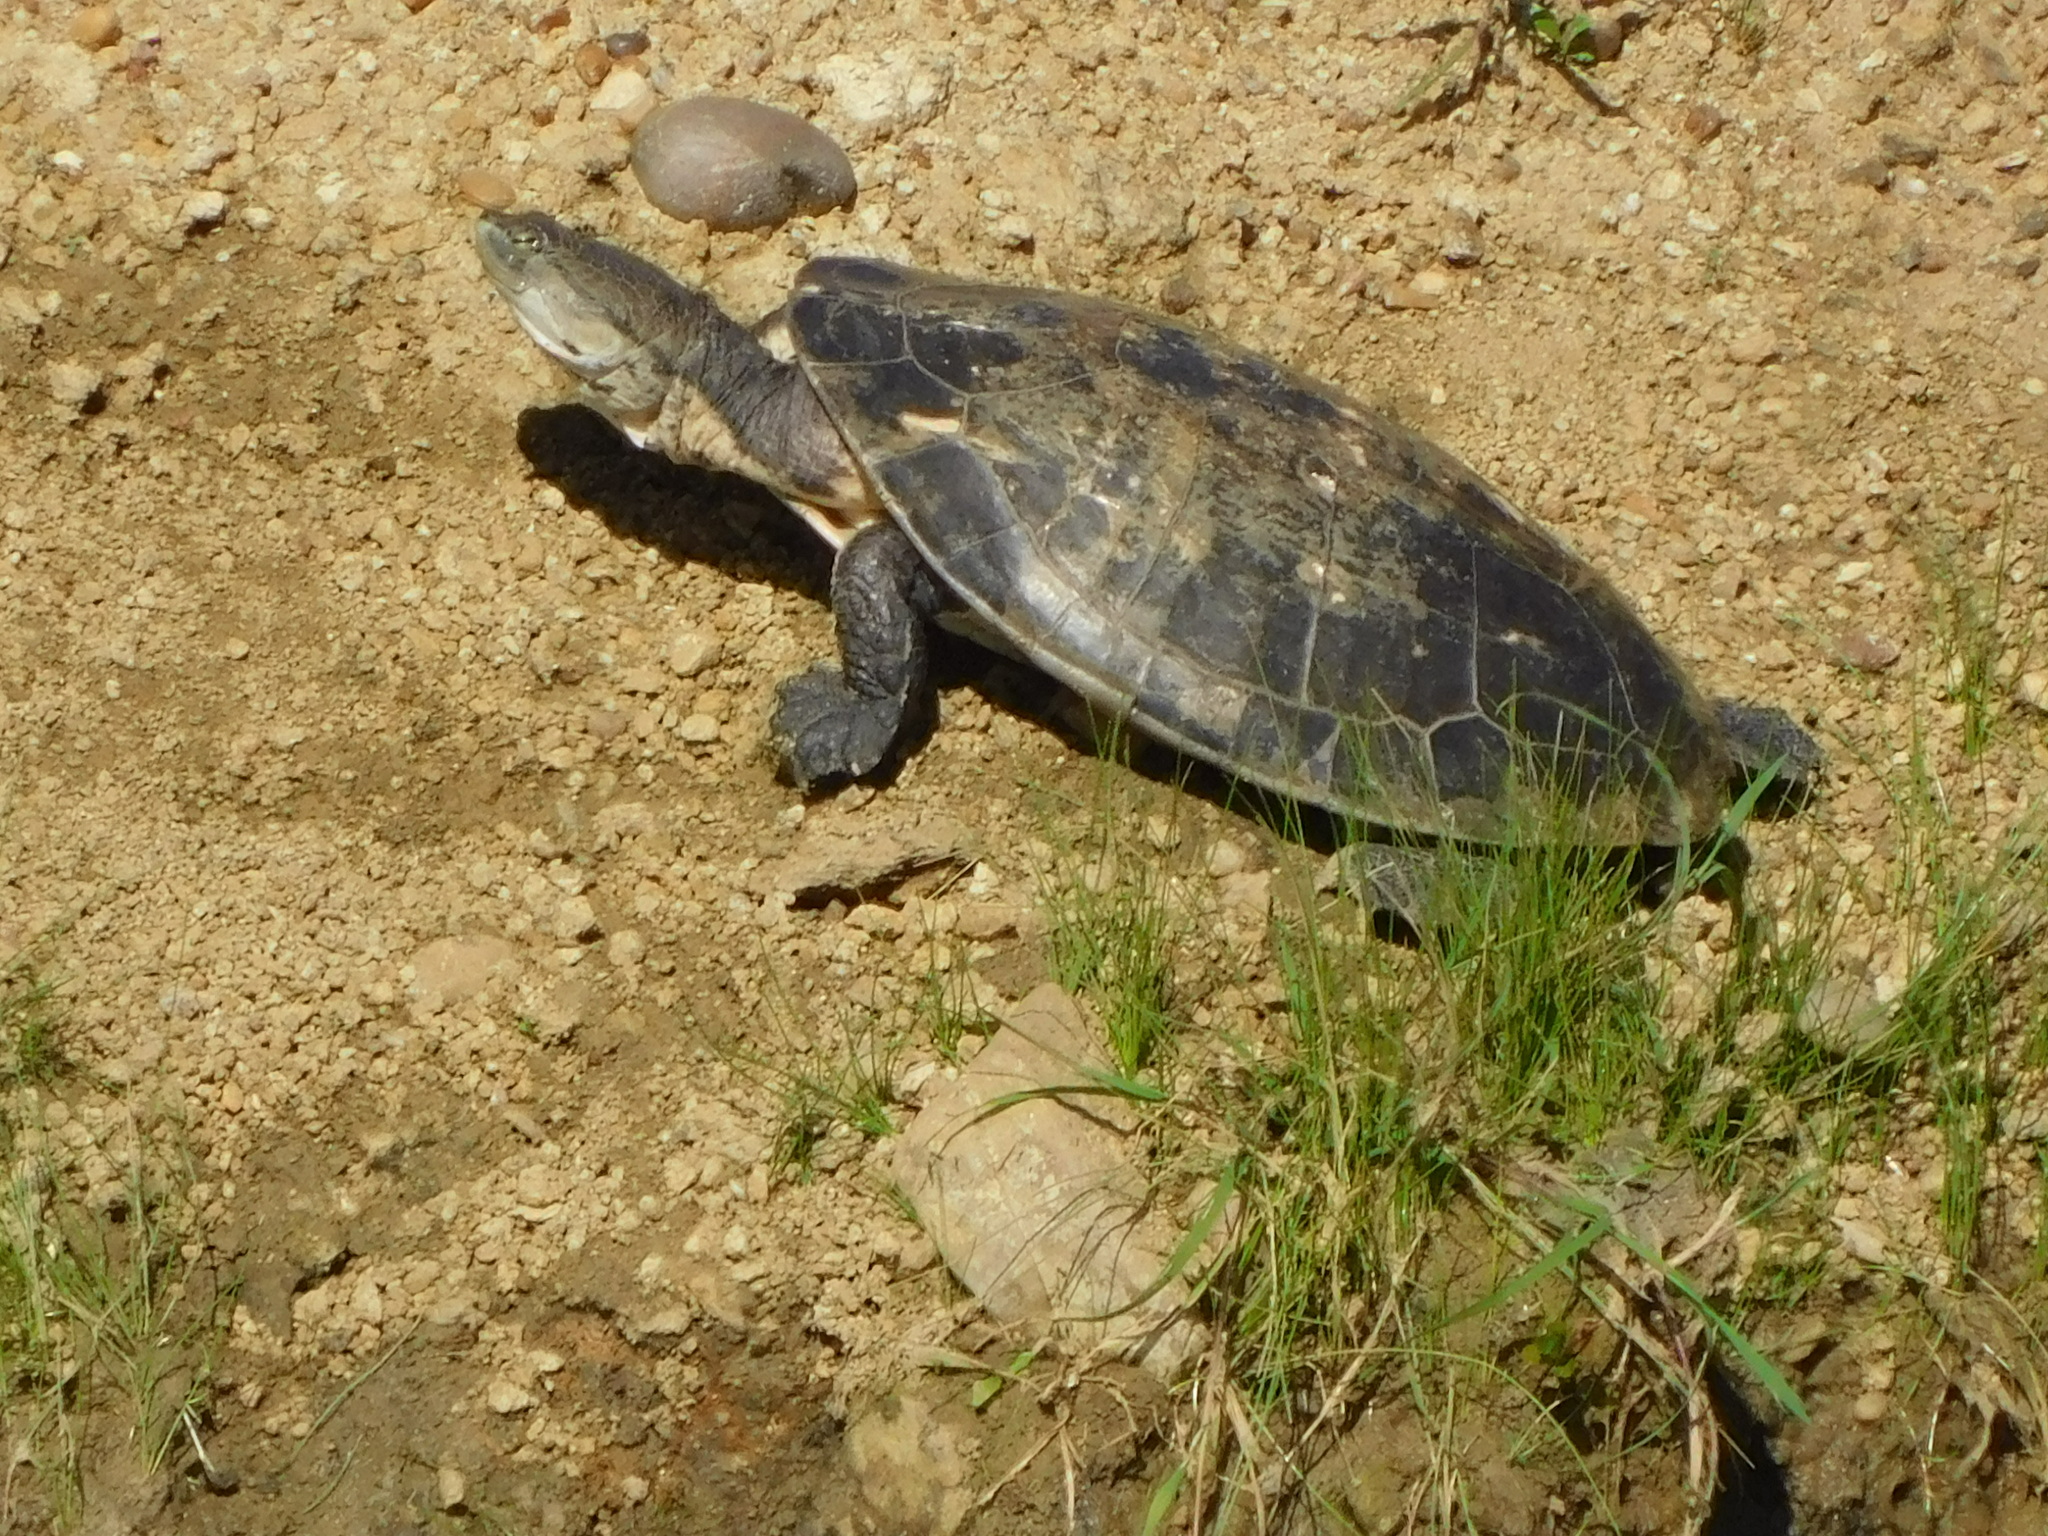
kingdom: Animalia
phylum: Chordata
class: Testudines
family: Chelidae
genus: Phrynops
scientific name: Phrynops hilarii
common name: Side-necked turtle of saint hillaire
